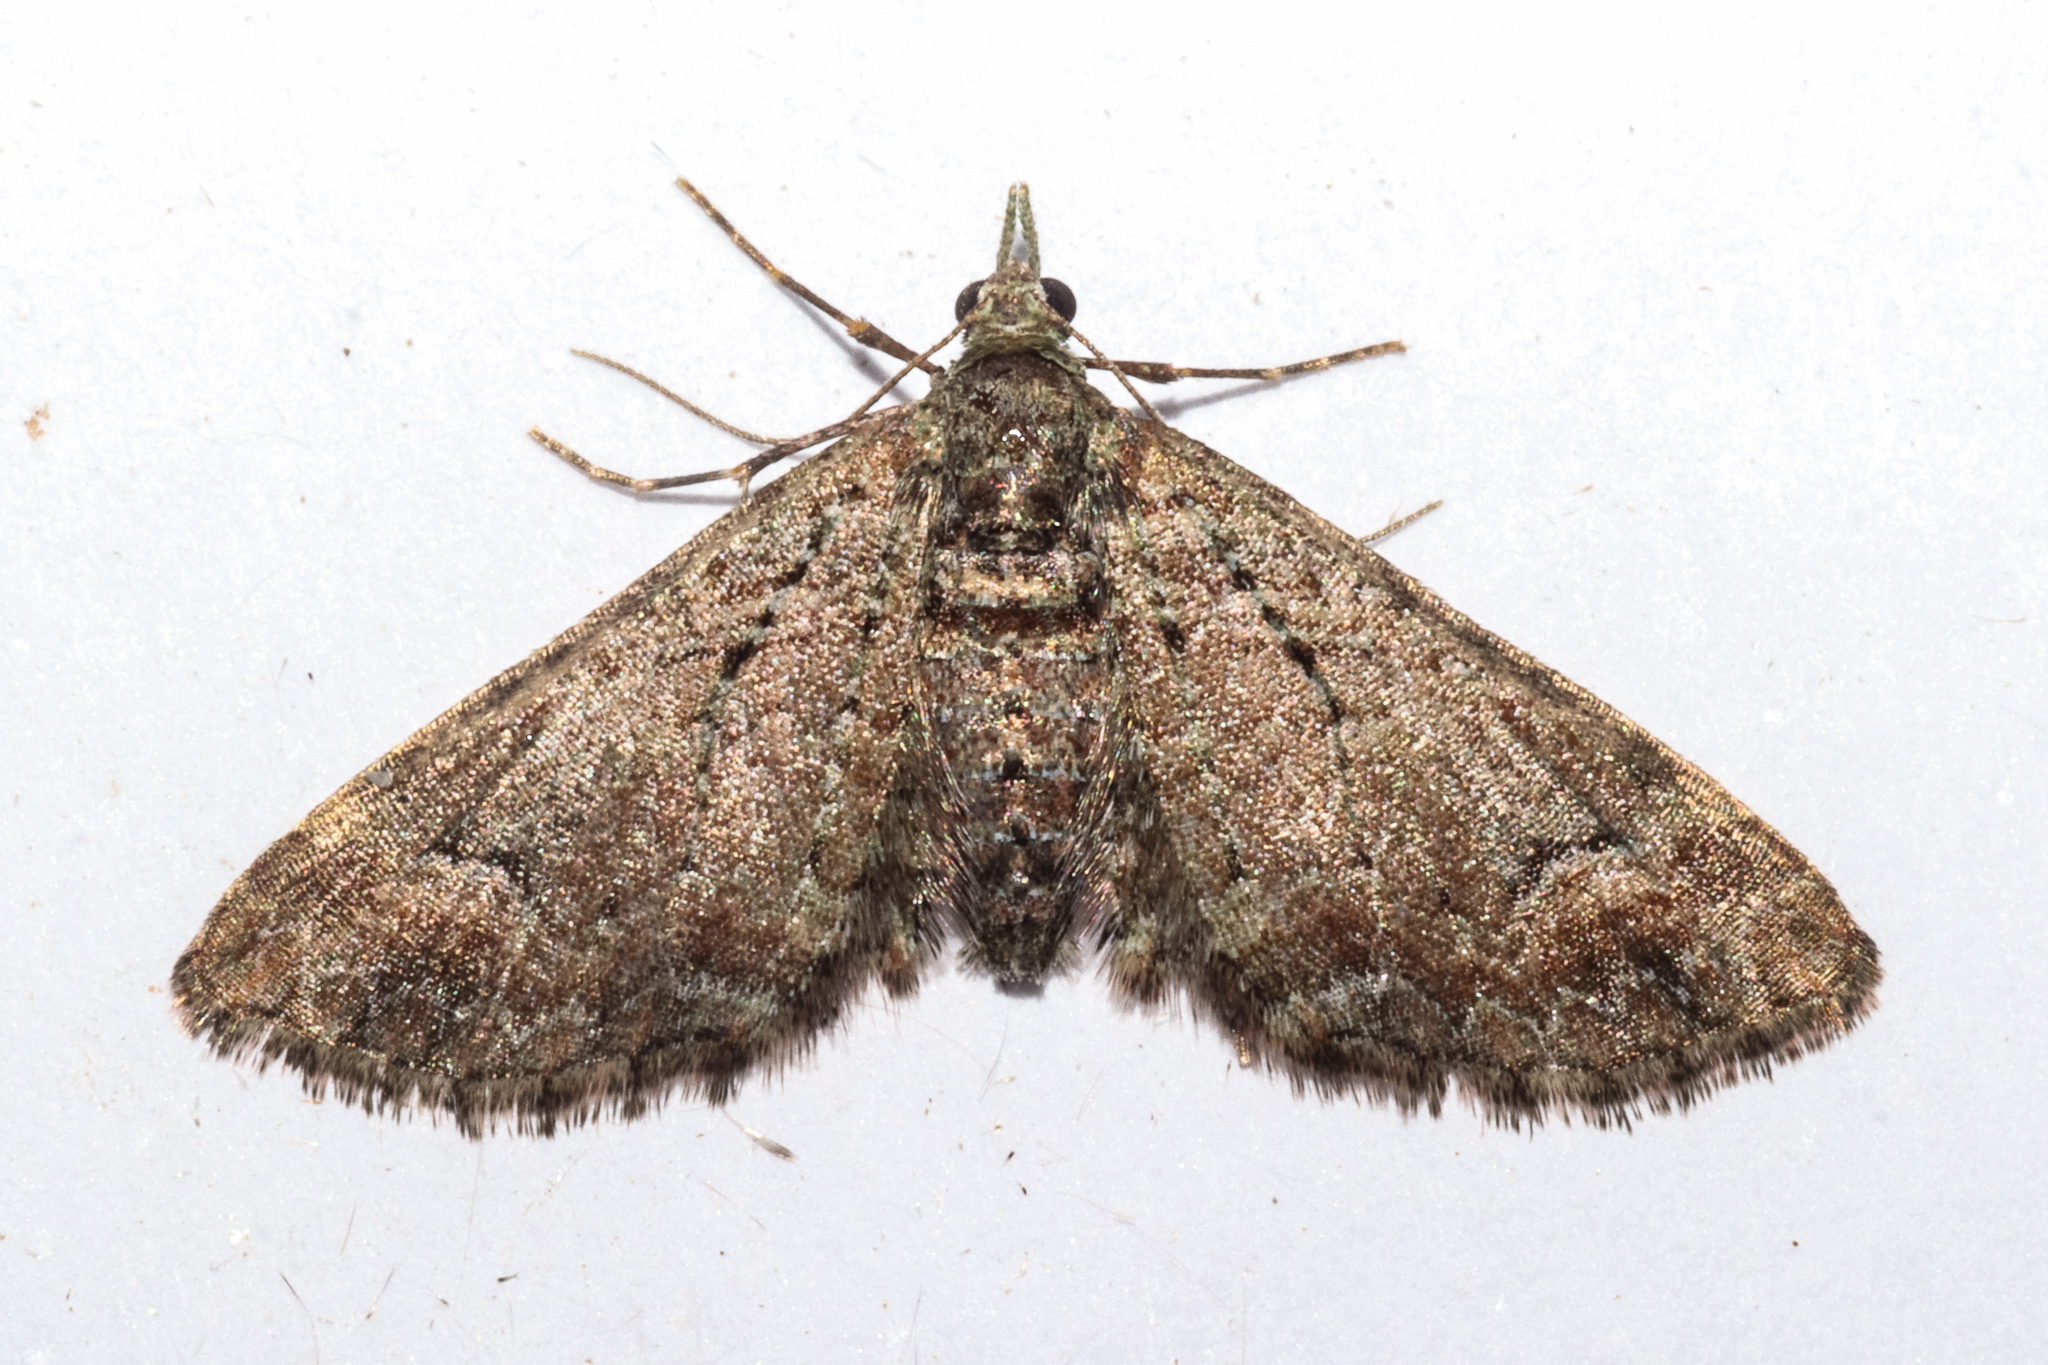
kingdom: Animalia
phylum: Arthropoda
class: Insecta
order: Lepidoptera
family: Geometridae
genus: Pasiphilodes
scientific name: Pasiphilodes testulata
